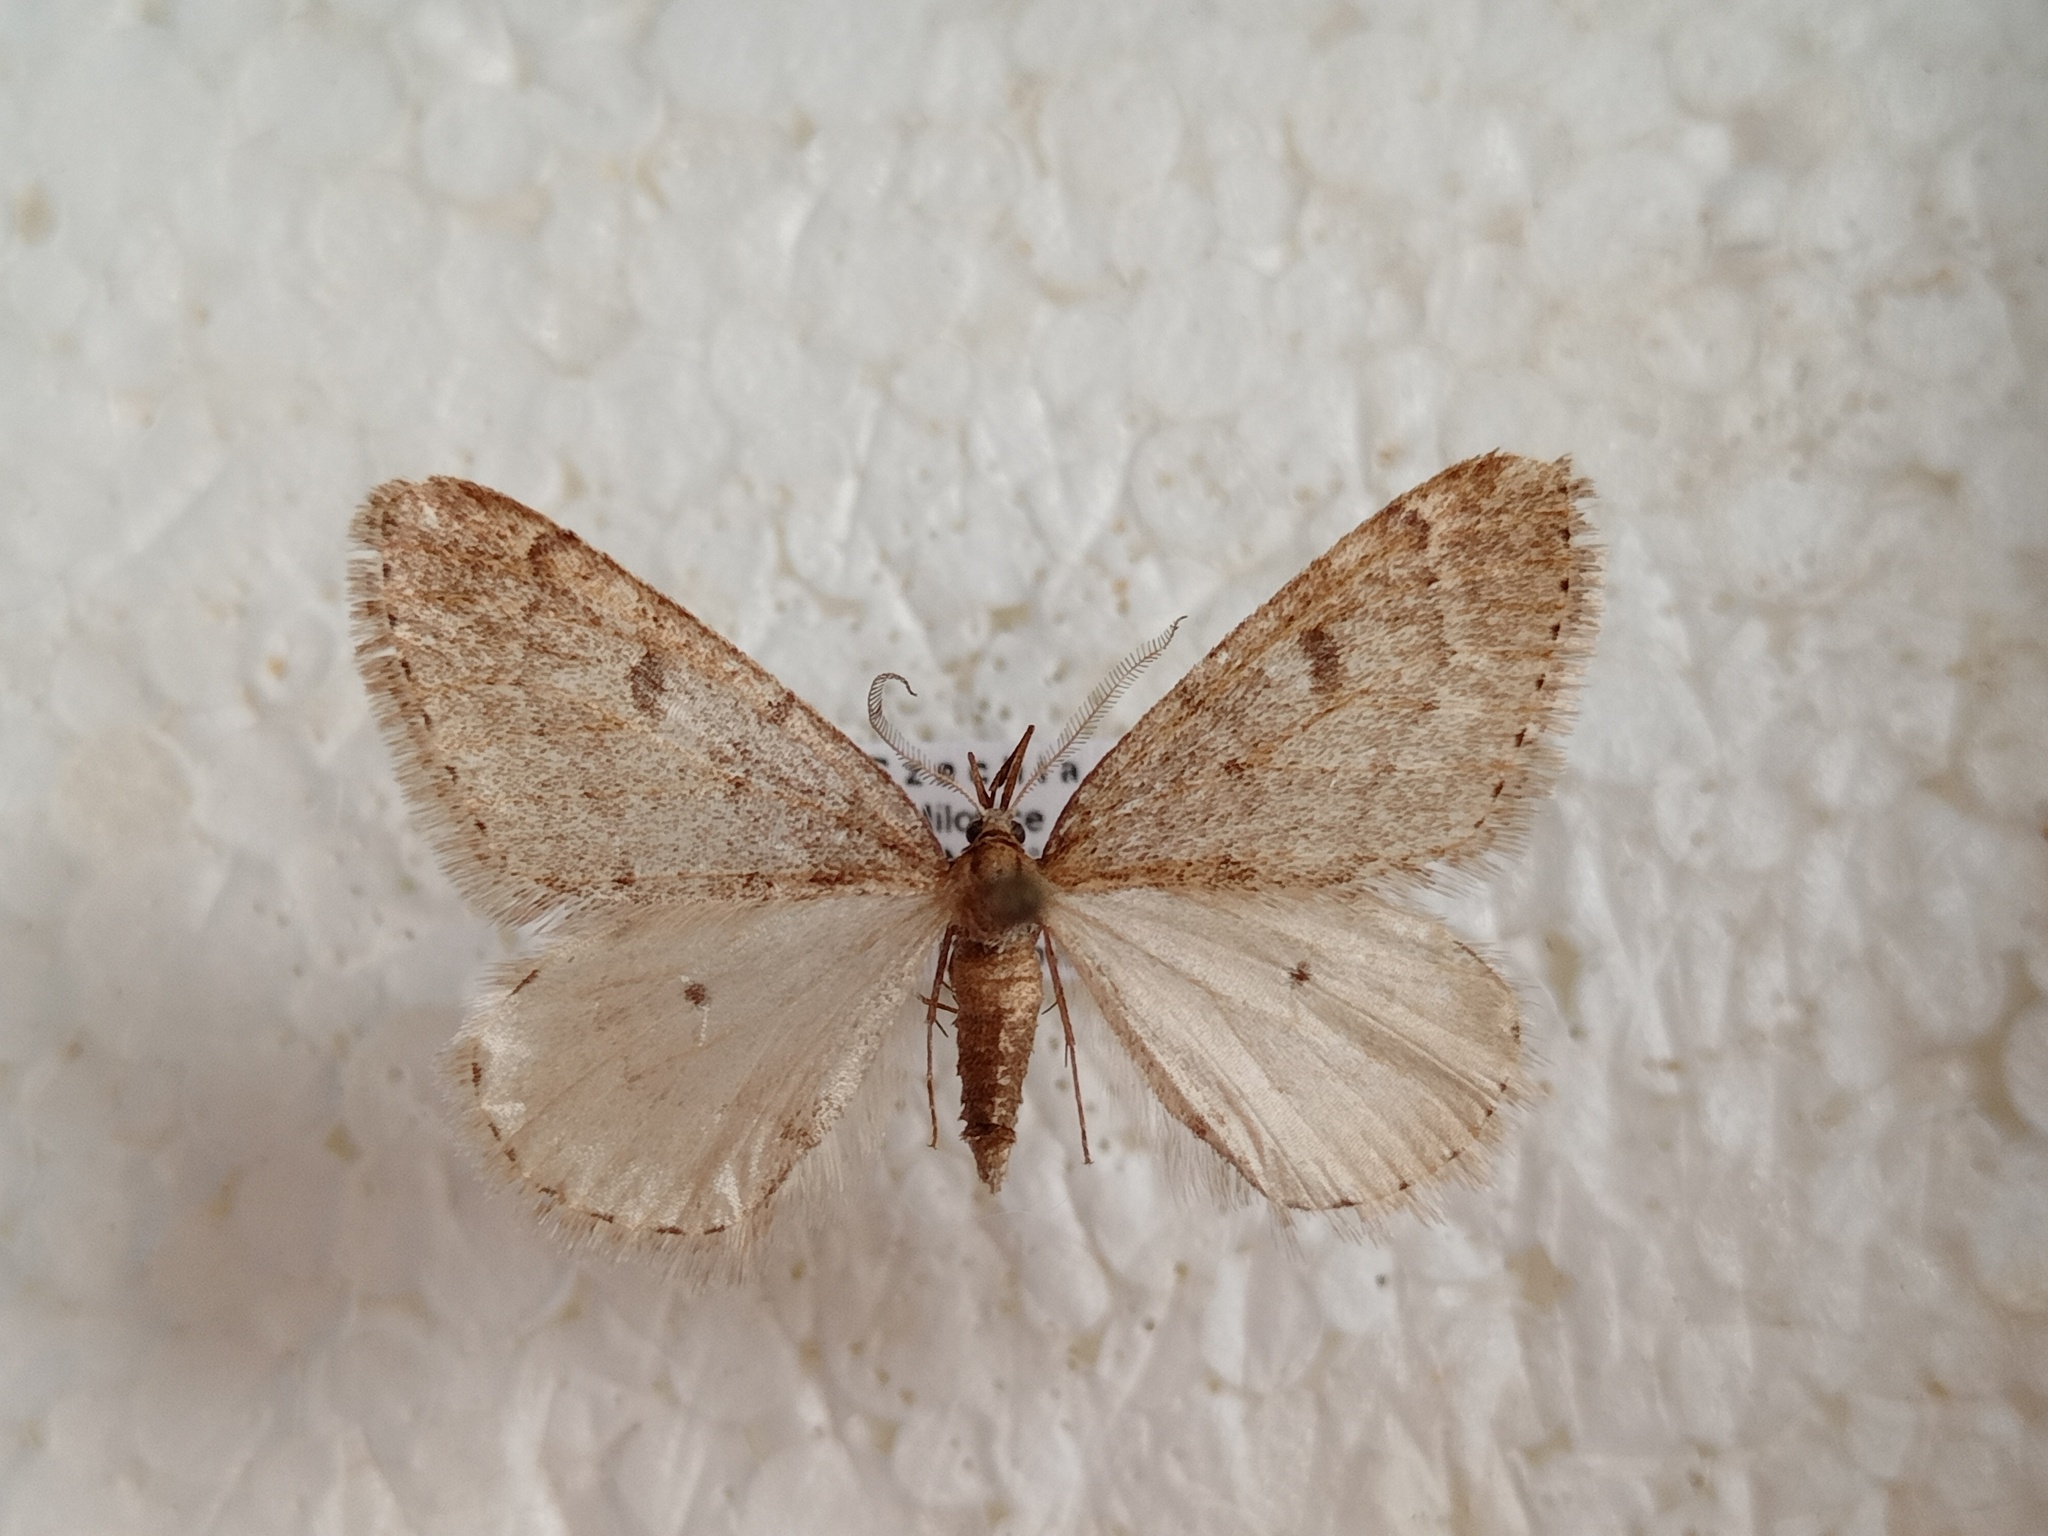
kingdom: Animalia
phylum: Arthropoda
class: Insecta
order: Lepidoptera
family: Geometridae
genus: Theria
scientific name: Theria rupicapraria
